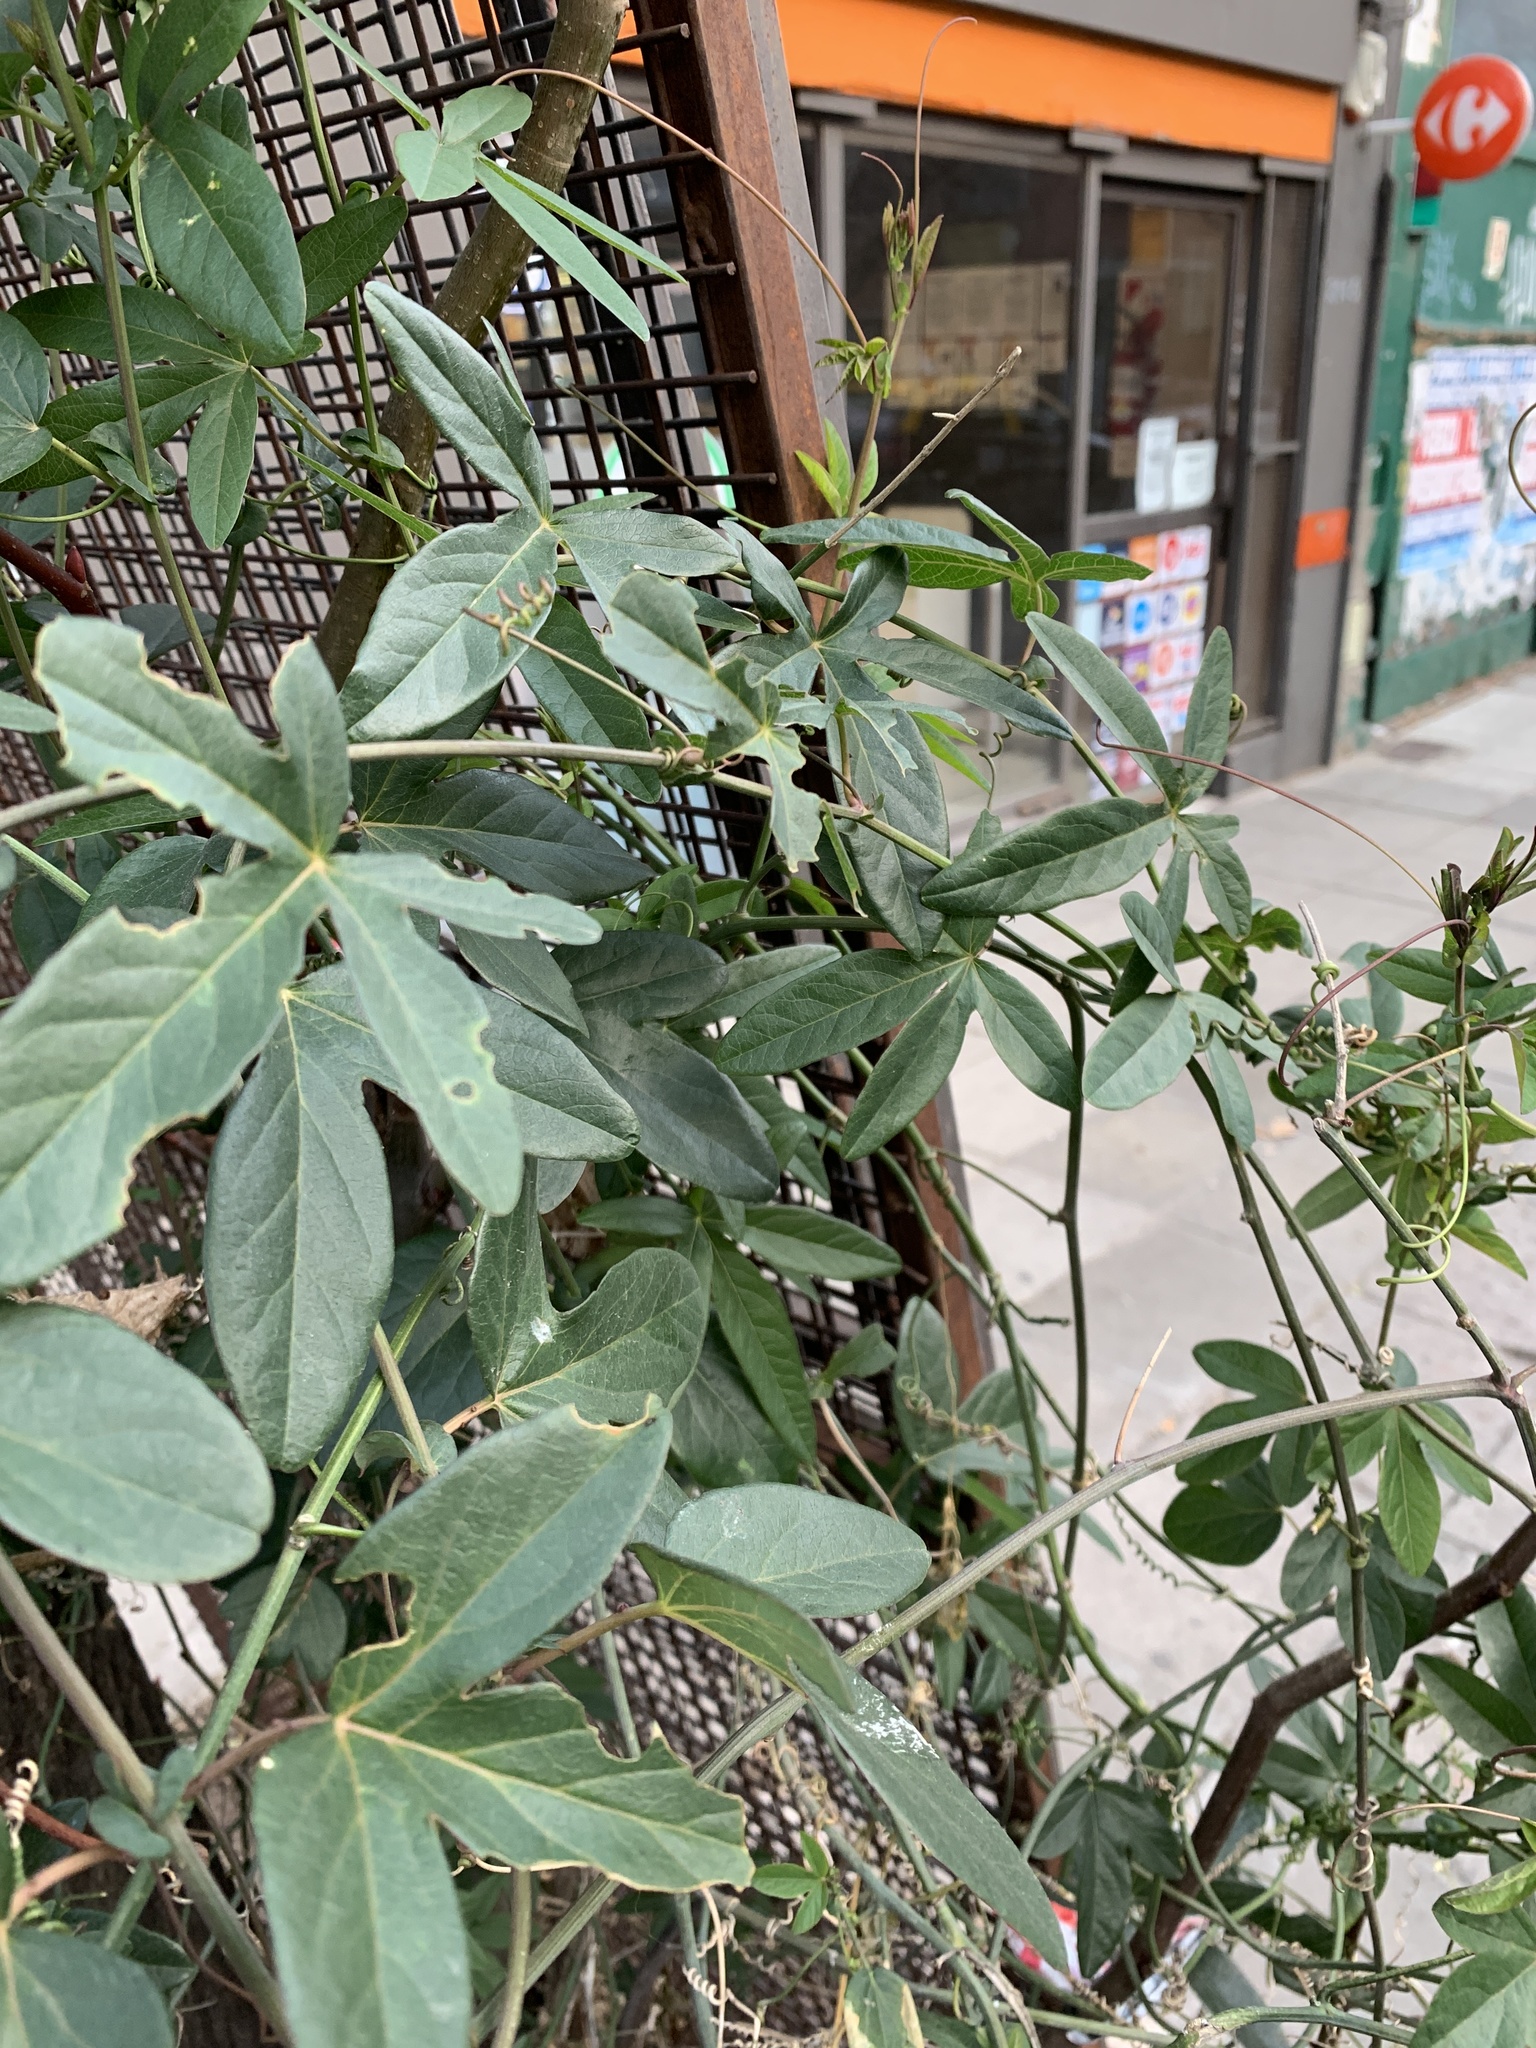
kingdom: Plantae
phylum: Tracheophyta
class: Magnoliopsida
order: Malpighiales
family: Passifloraceae
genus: Passiflora
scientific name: Passiflora caerulea
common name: Blue passionflower
